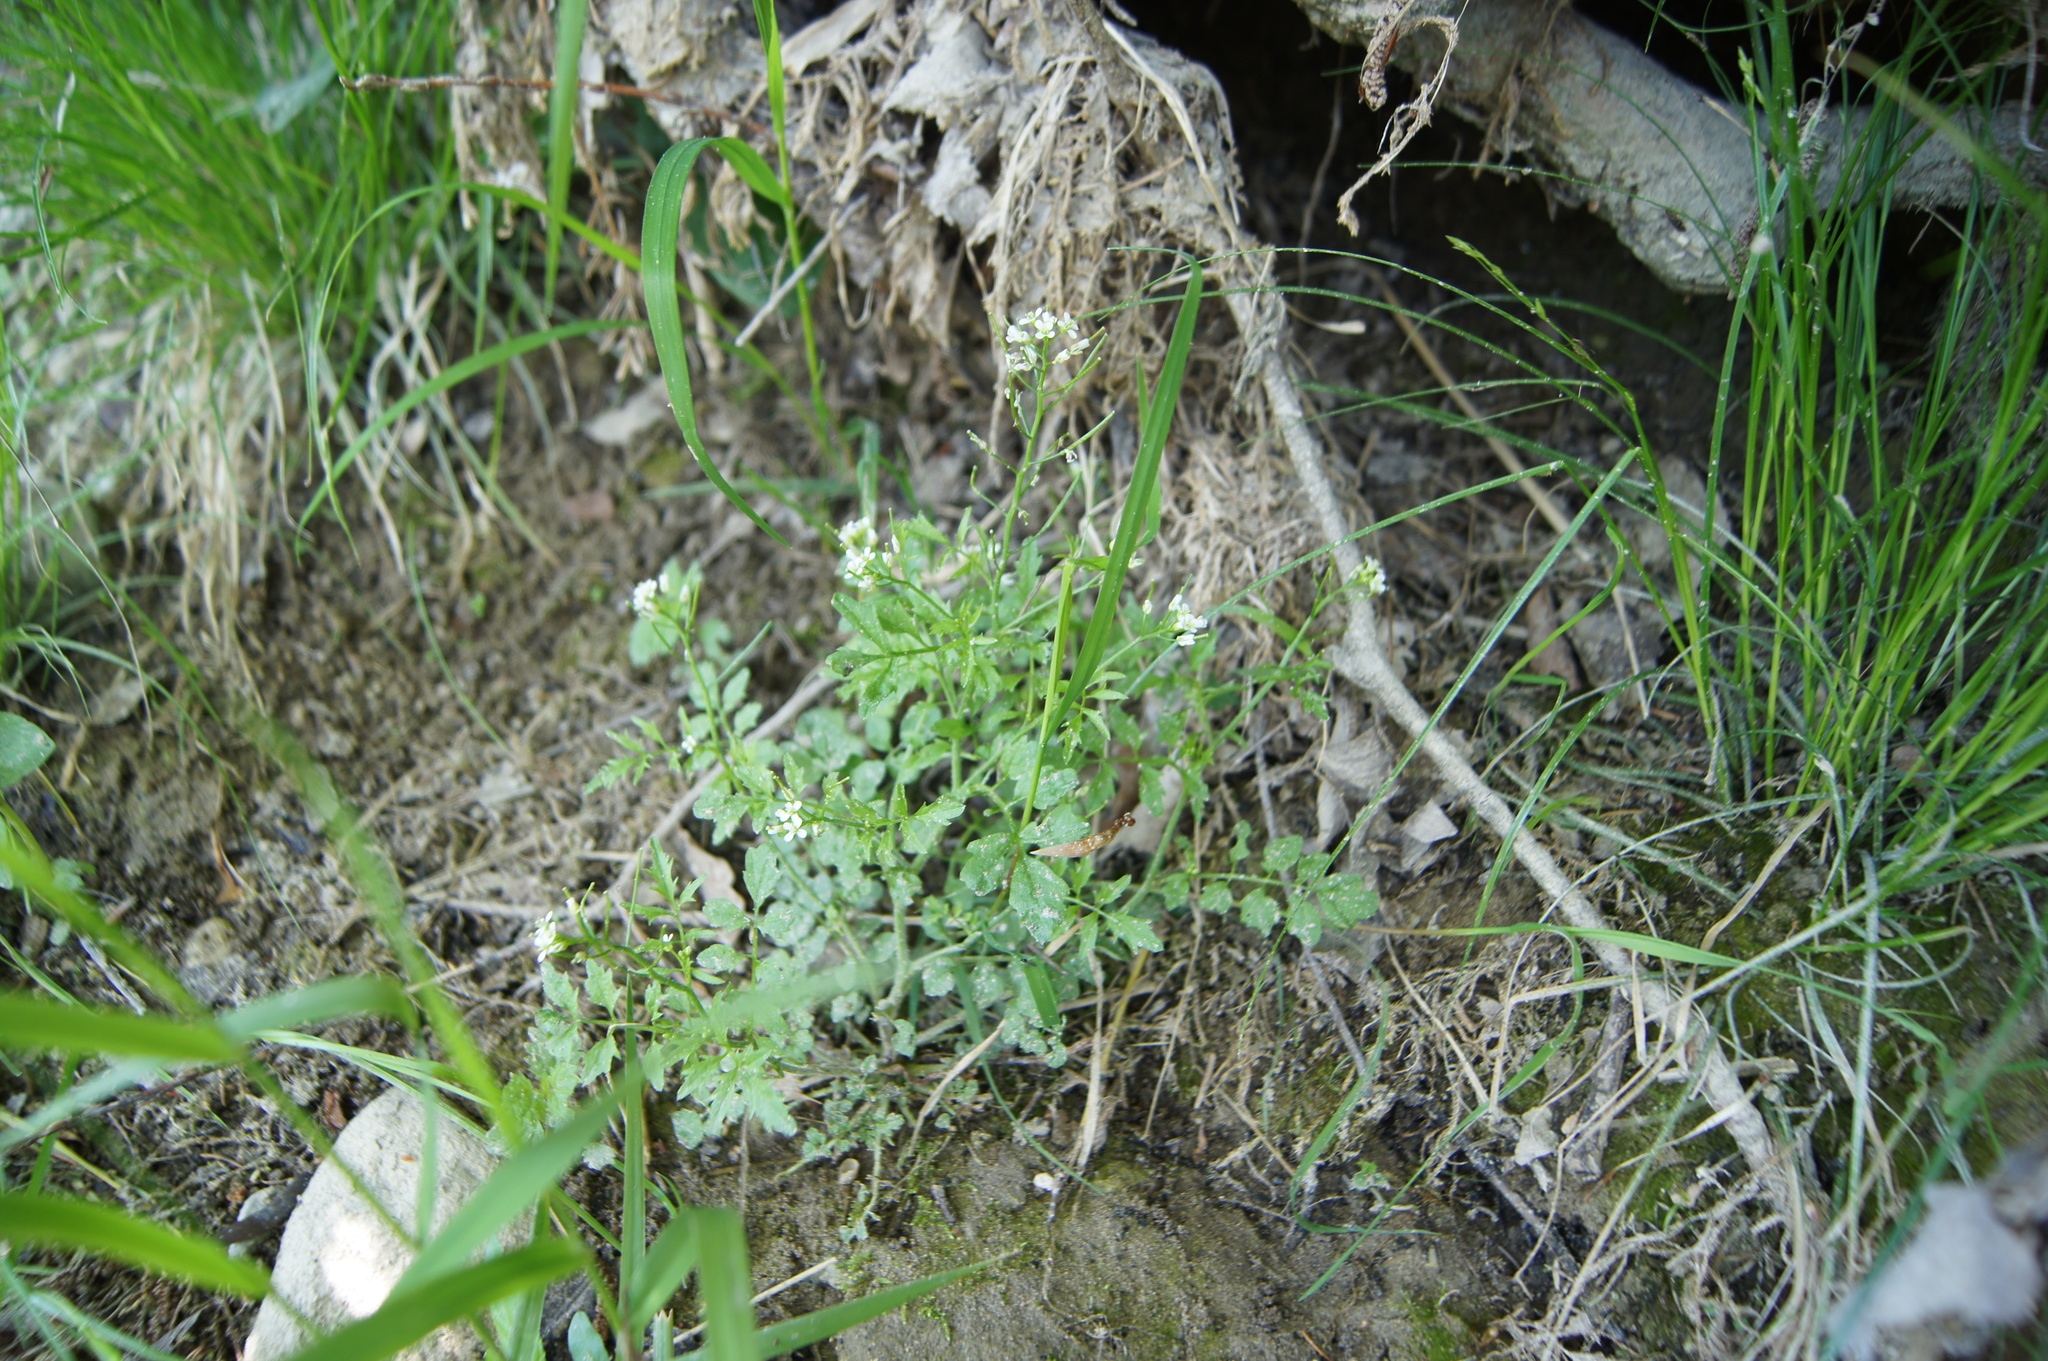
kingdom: Plantae
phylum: Tracheophyta
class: Magnoliopsida
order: Brassicales
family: Brassicaceae
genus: Cardamine
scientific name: Cardamine flexuosa
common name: Woodland bittercress
